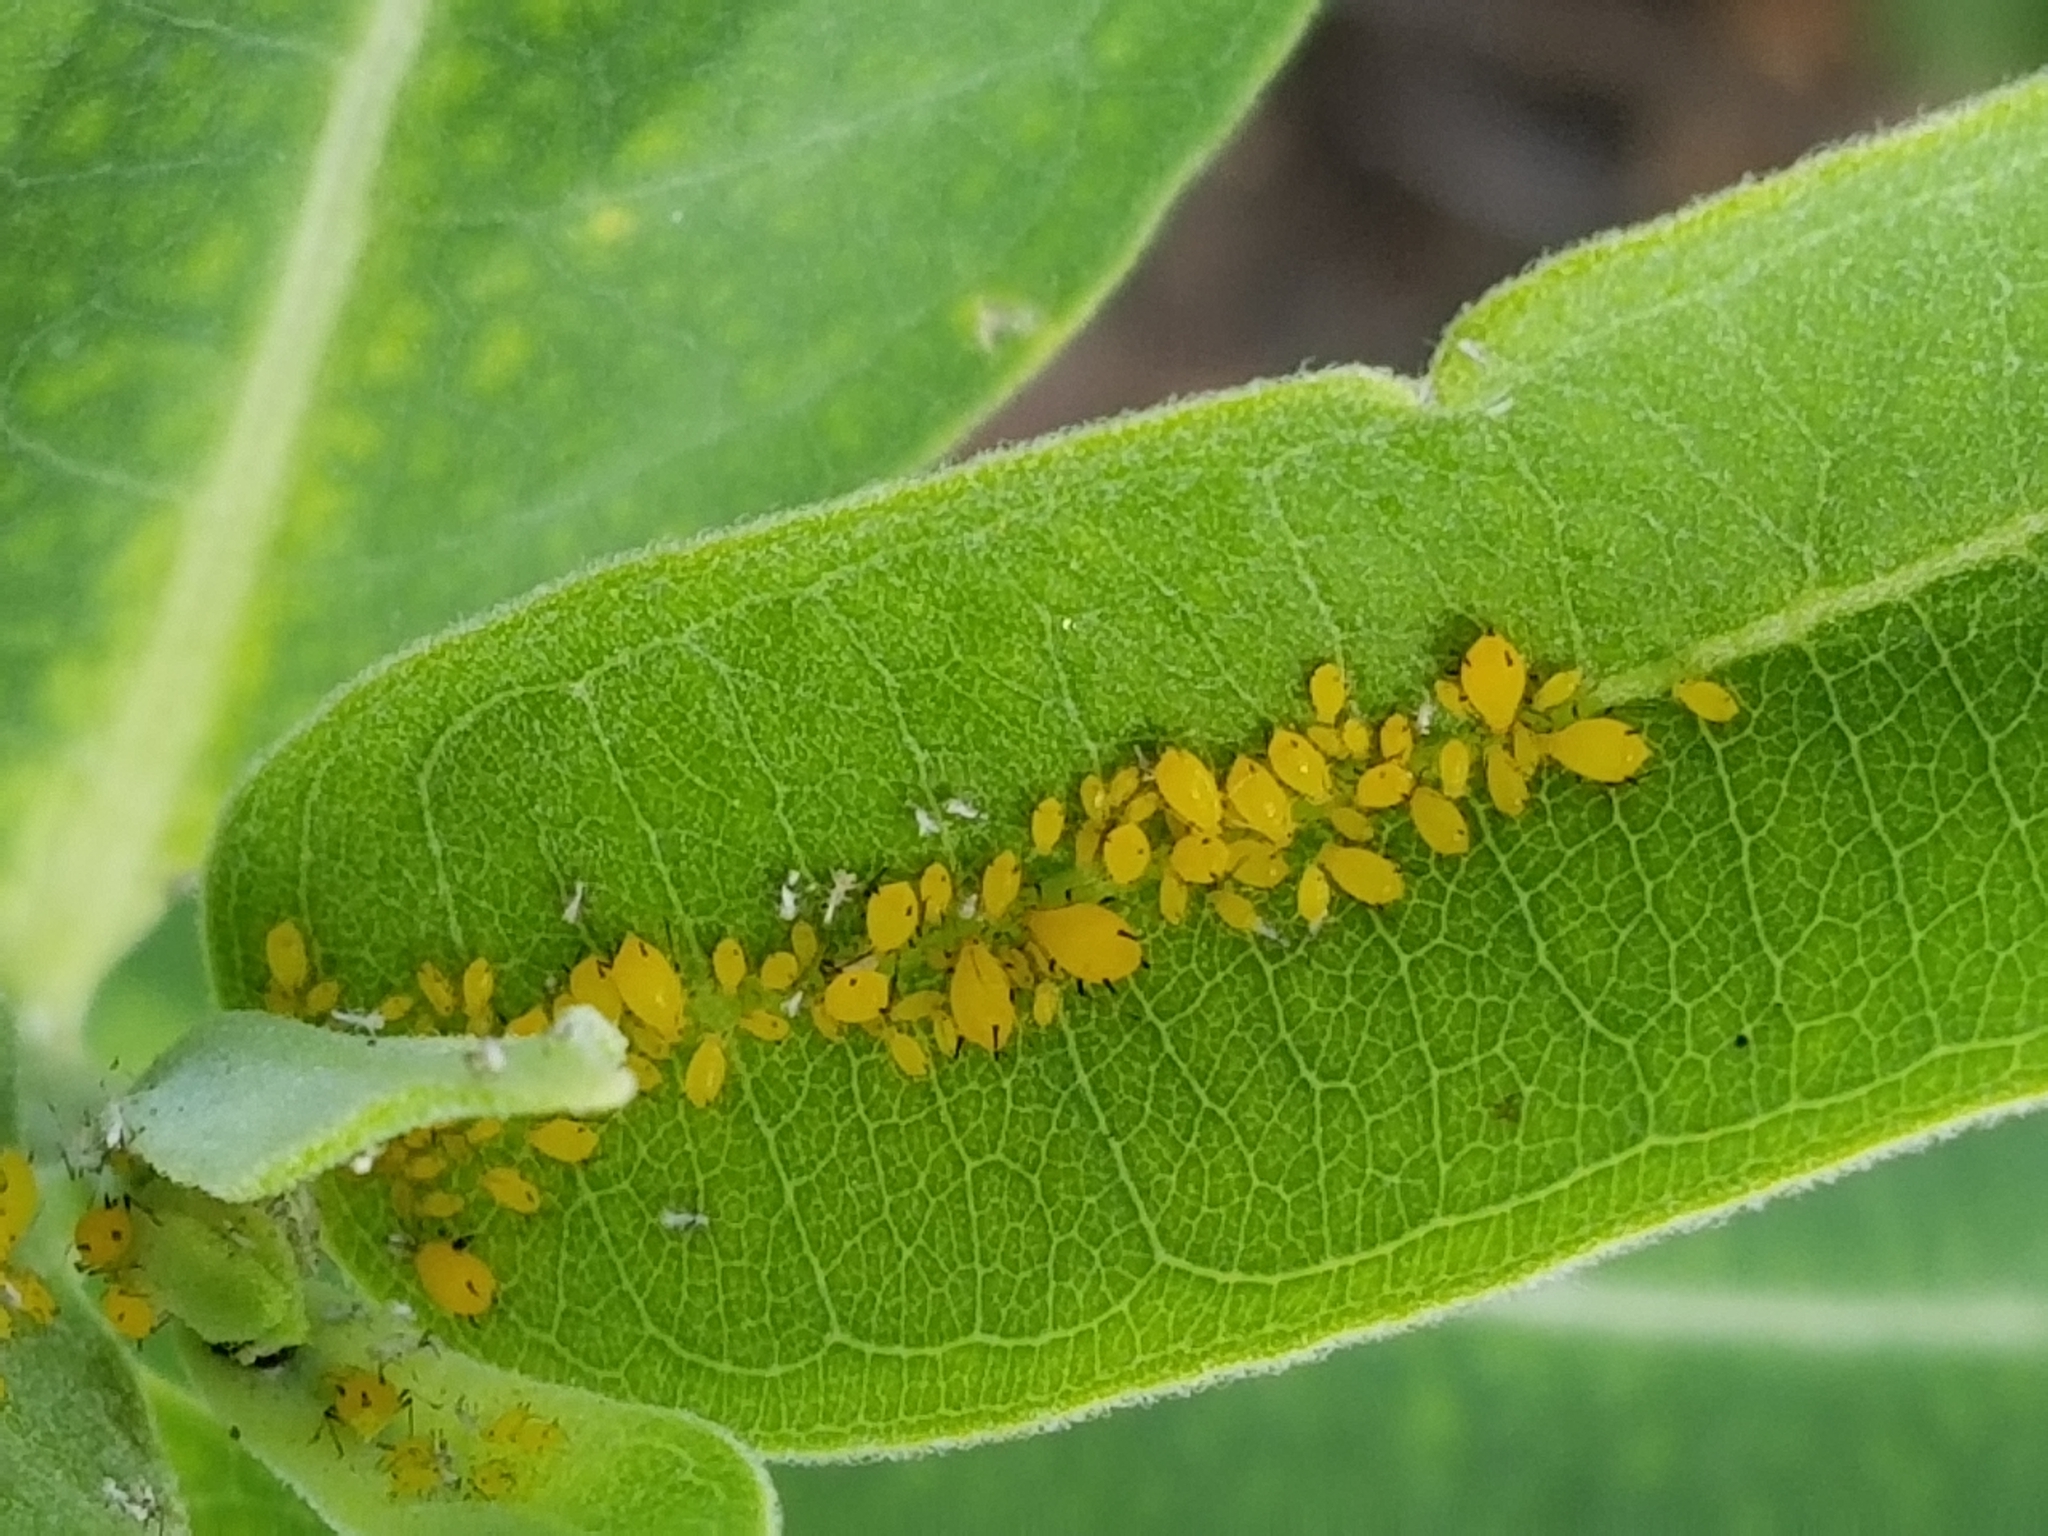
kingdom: Animalia
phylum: Arthropoda
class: Insecta
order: Hemiptera
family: Aphididae
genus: Aphis
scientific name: Aphis nerii
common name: Oleander aphid
